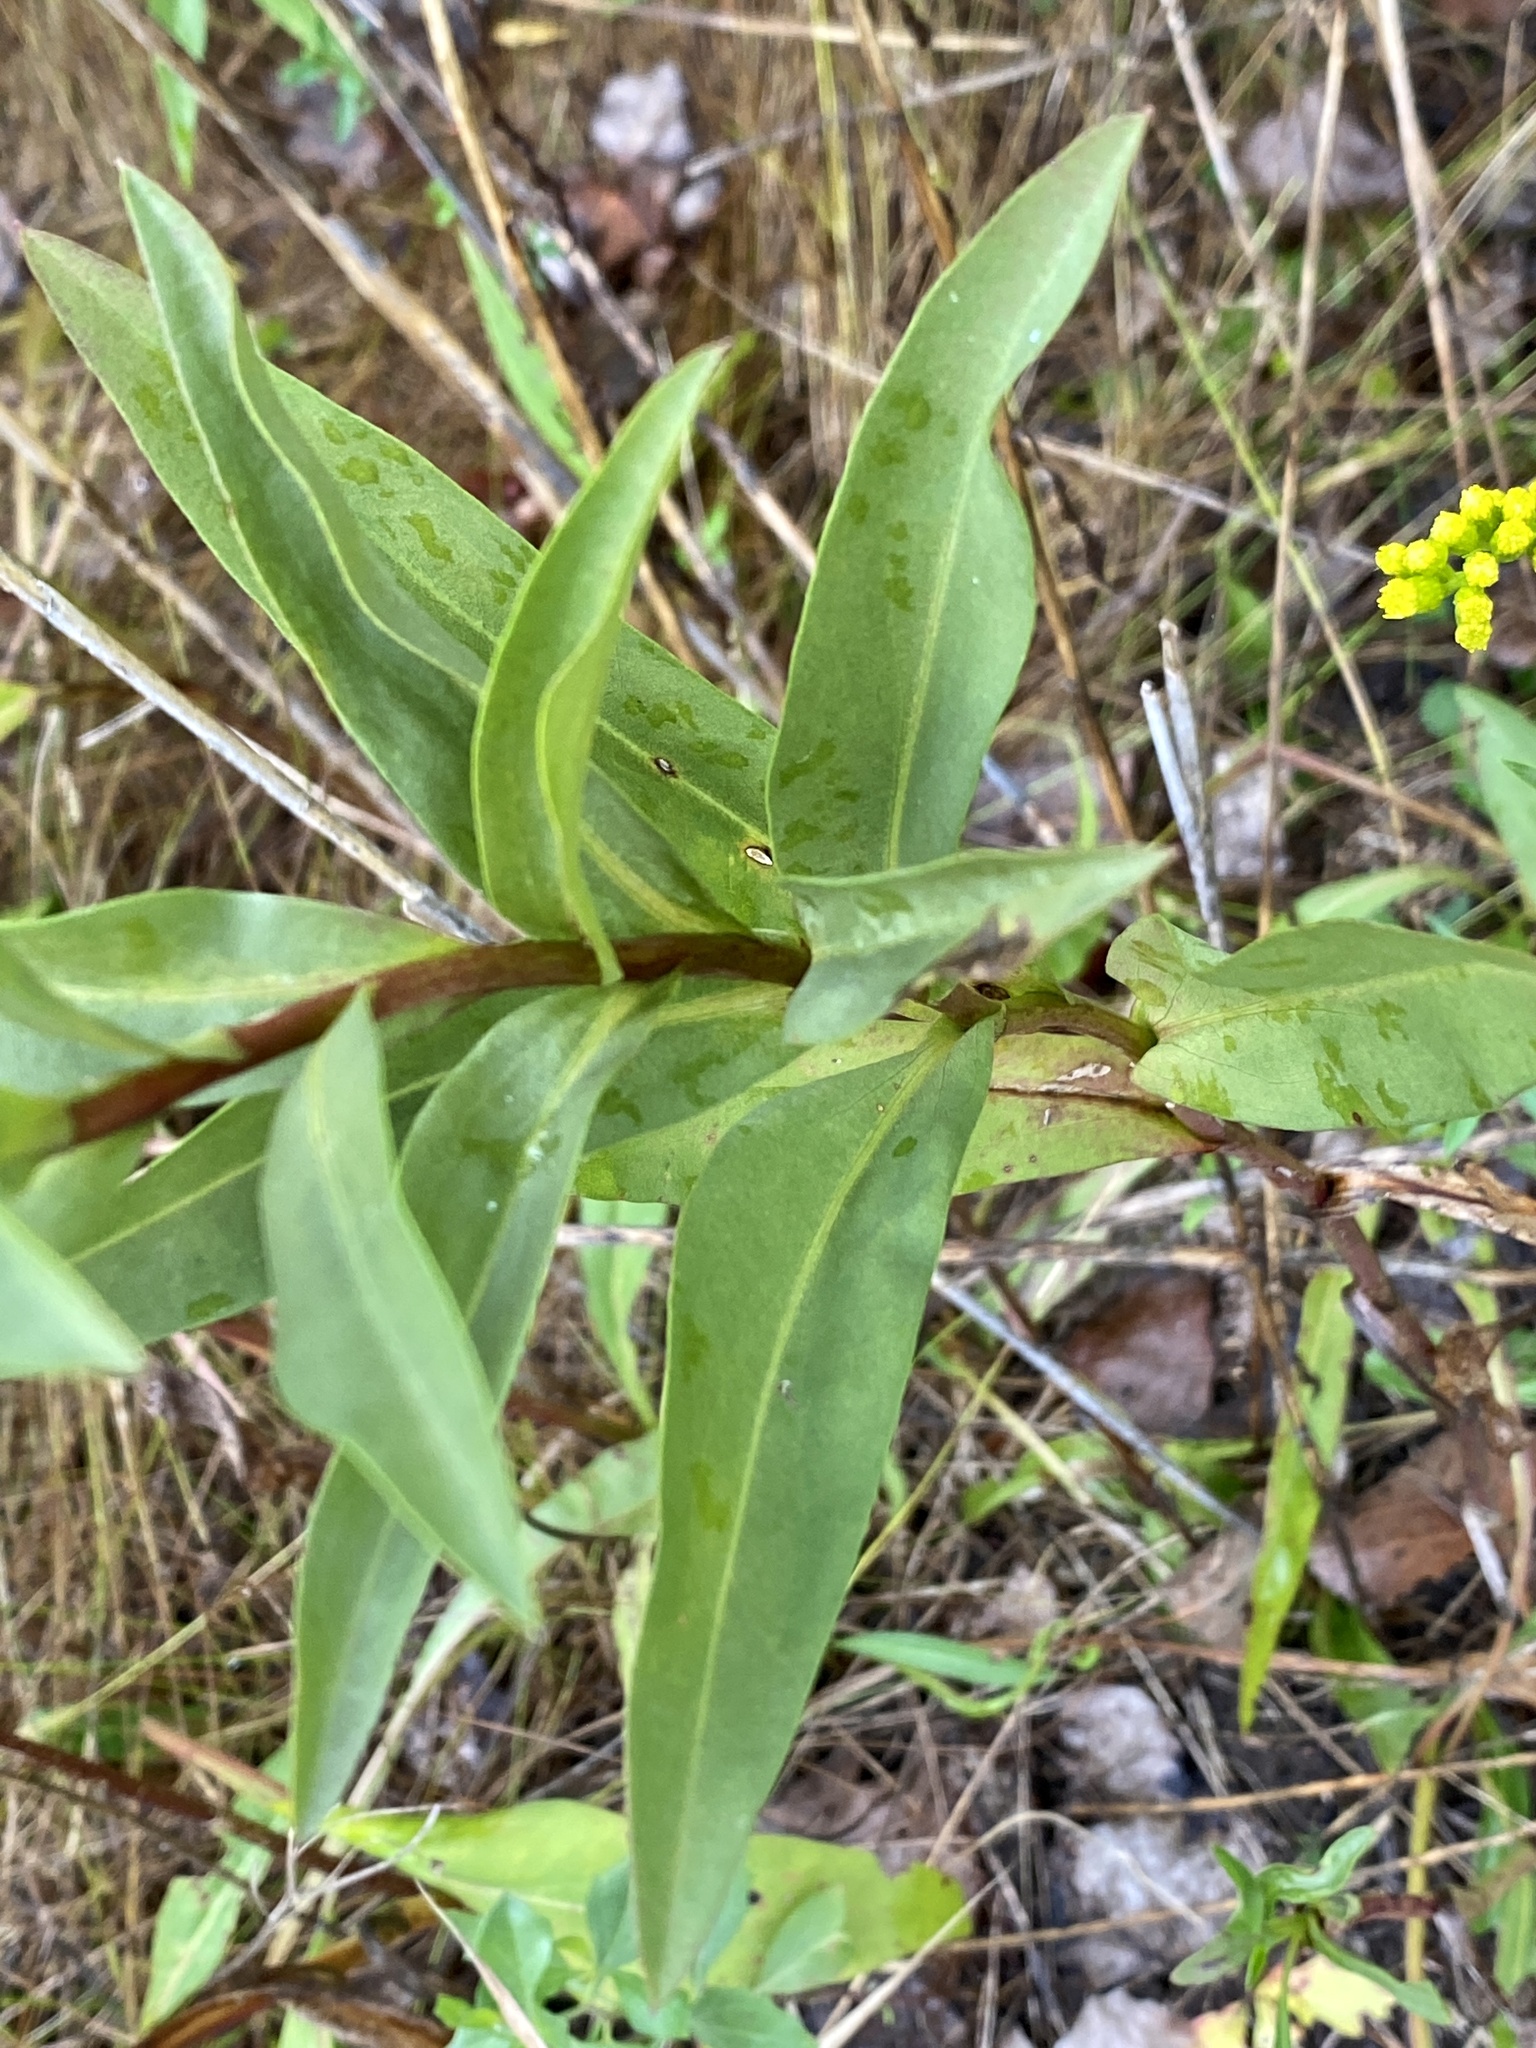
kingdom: Plantae
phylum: Tracheophyta
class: Magnoliopsida
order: Asterales
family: Asteraceae
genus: Solidago
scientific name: Solidago sempervirens
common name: Salt-marsh goldenrod
